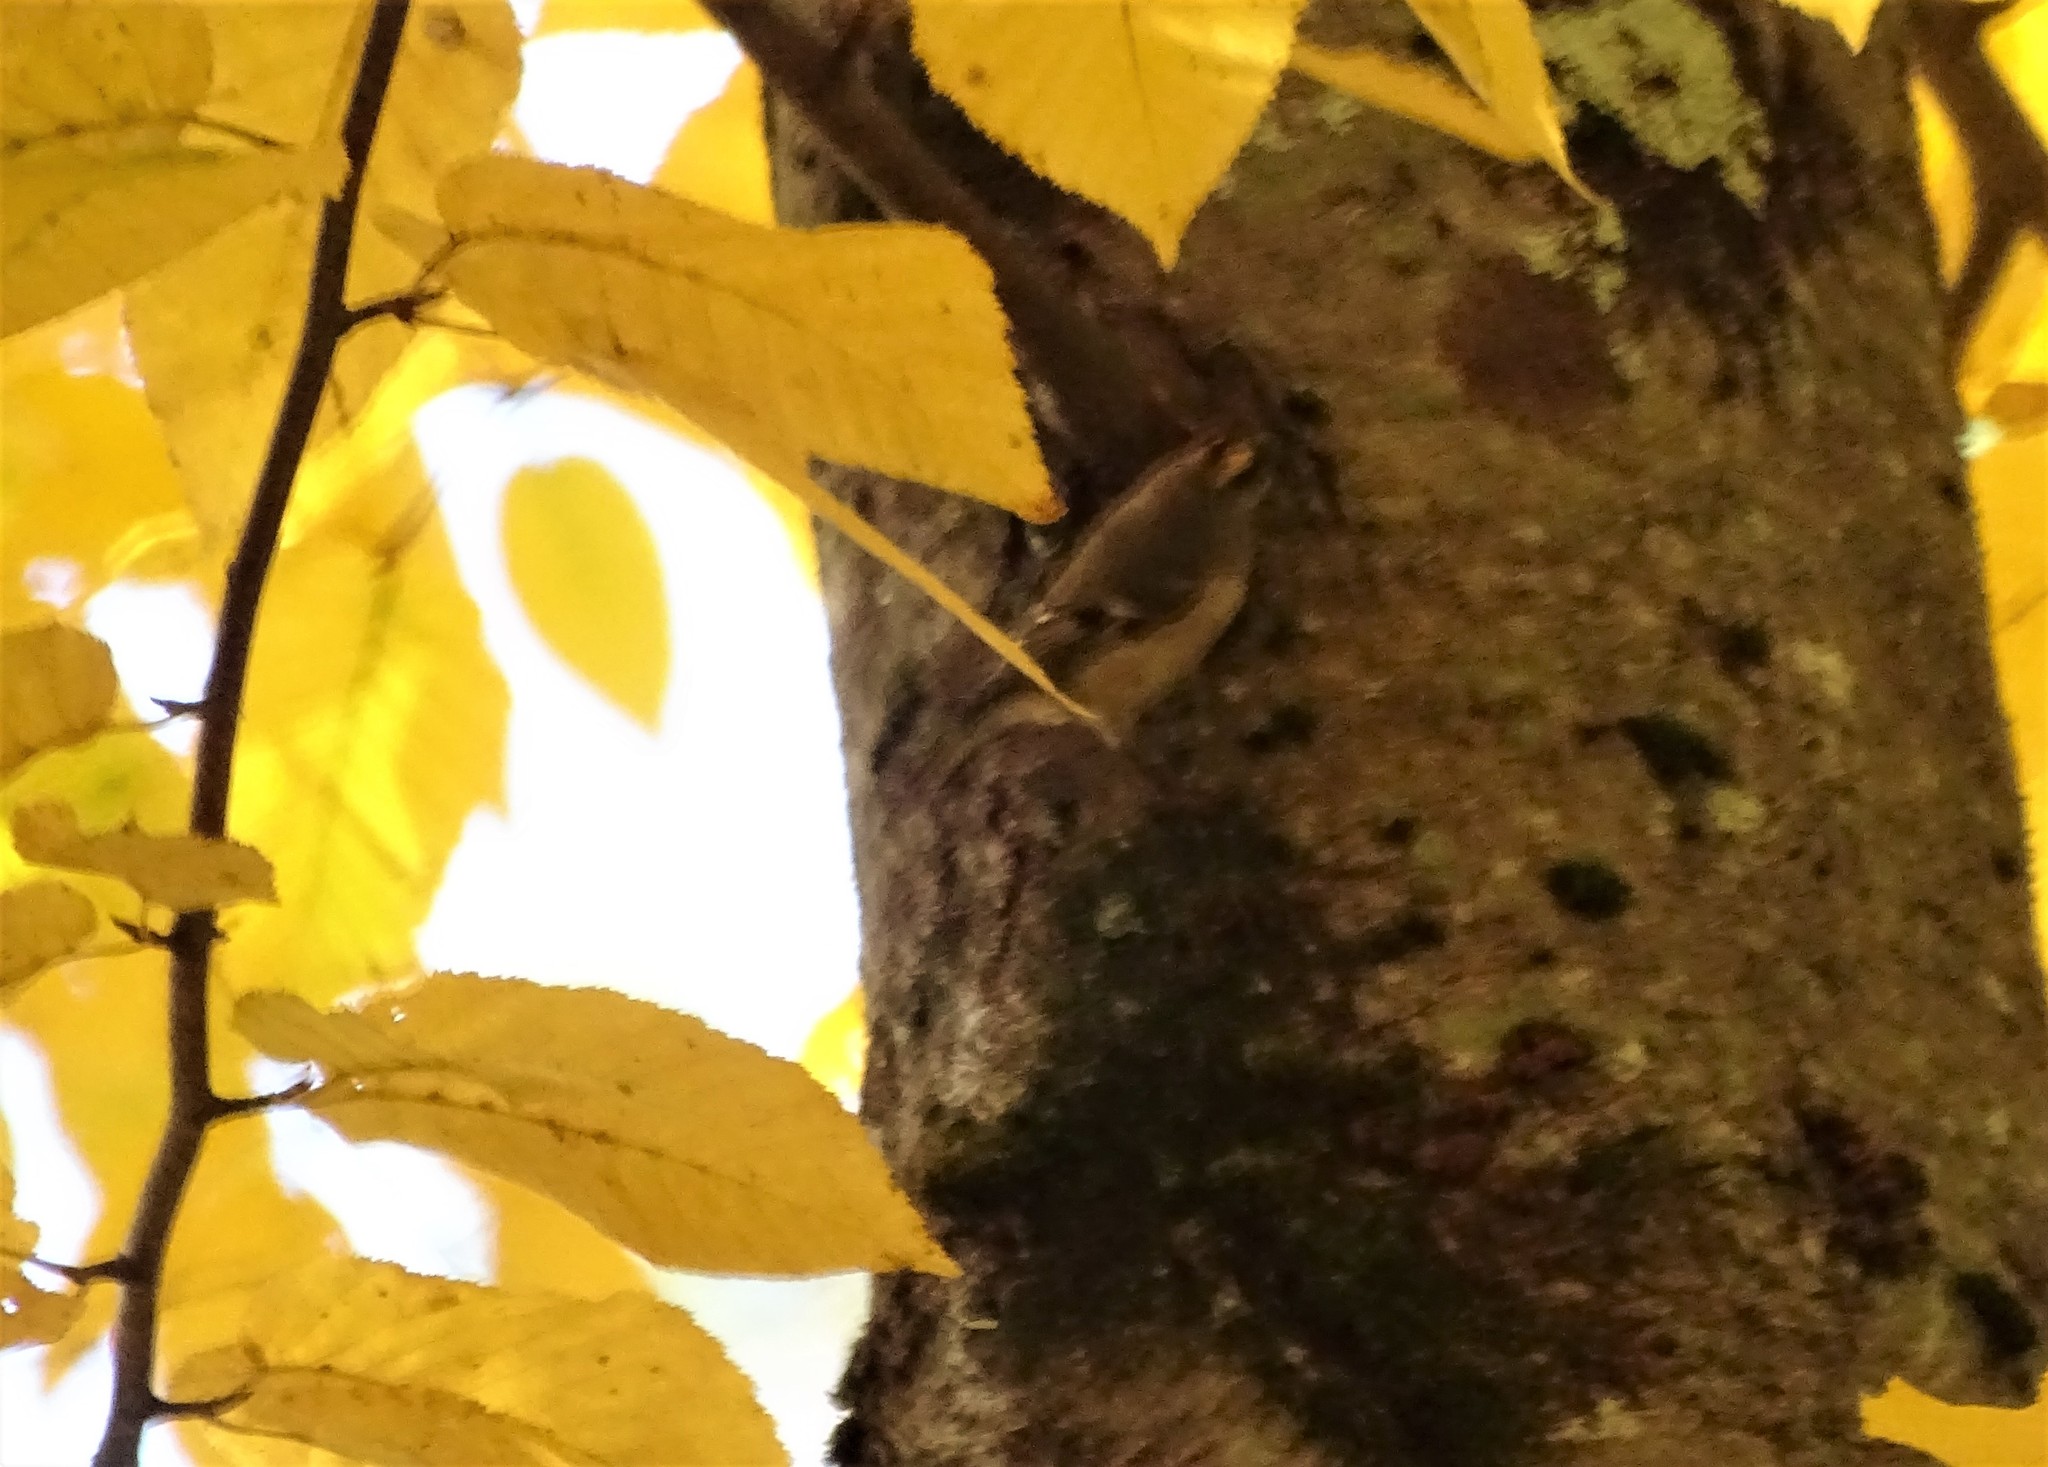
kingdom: Animalia
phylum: Chordata
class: Aves
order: Passeriformes
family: Regulidae
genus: Regulus
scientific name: Regulus satrapa
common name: Golden-crowned kinglet
